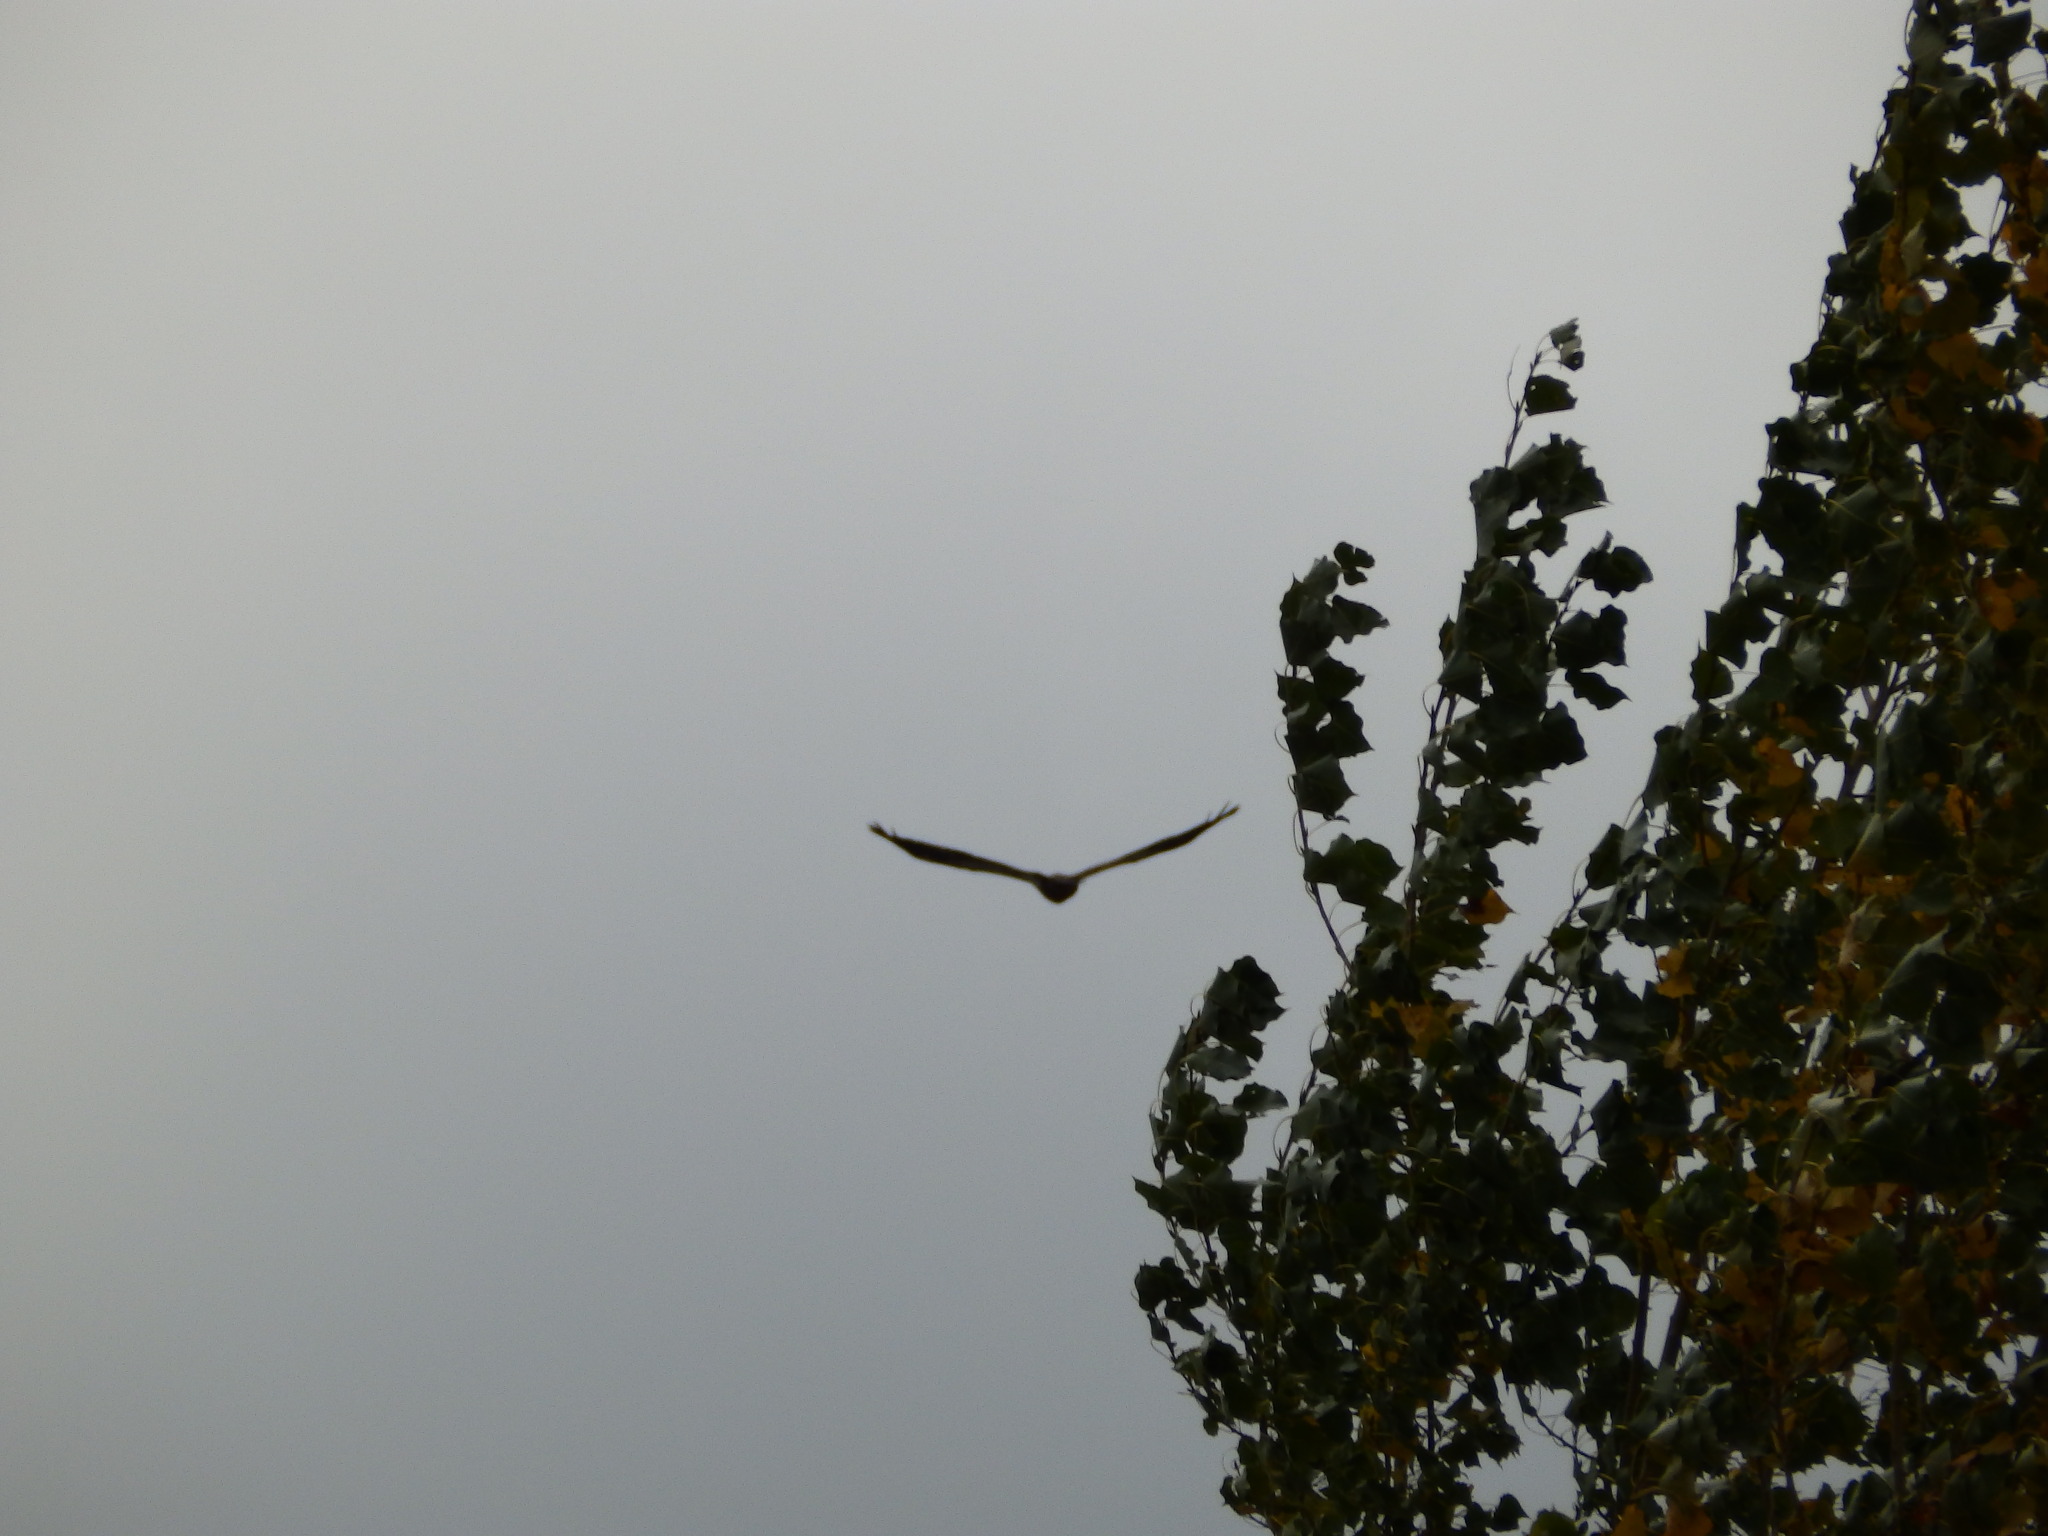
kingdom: Animalia
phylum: Chordata
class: Aves
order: Accipitriformes
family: Accipitridae
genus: Haliaeetus
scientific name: Haliaeetus leucocephalus
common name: Bald eagle
